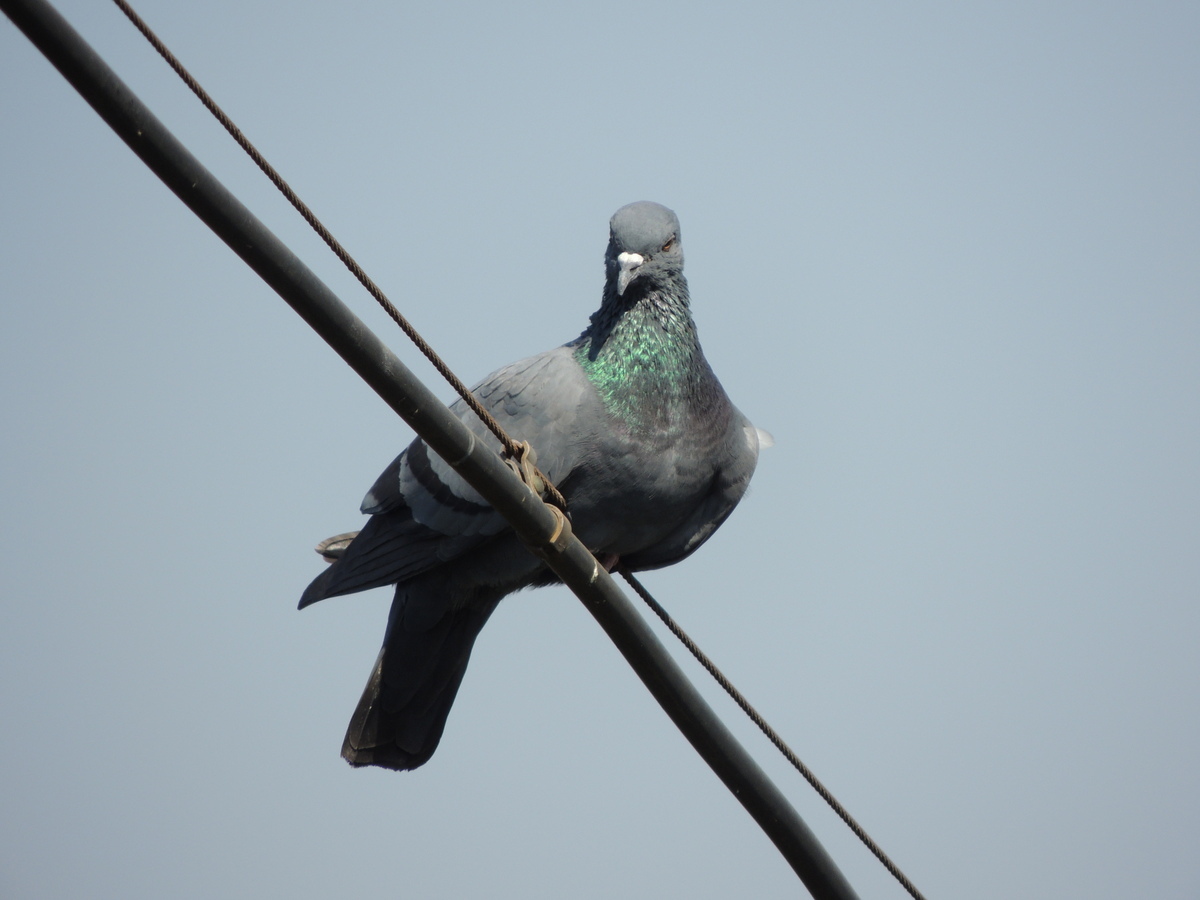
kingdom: Animalia
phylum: Chordata
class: Aves
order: Columbiformes
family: Columbidae
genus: Columba
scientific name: Columba livia
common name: Rock pigeon
